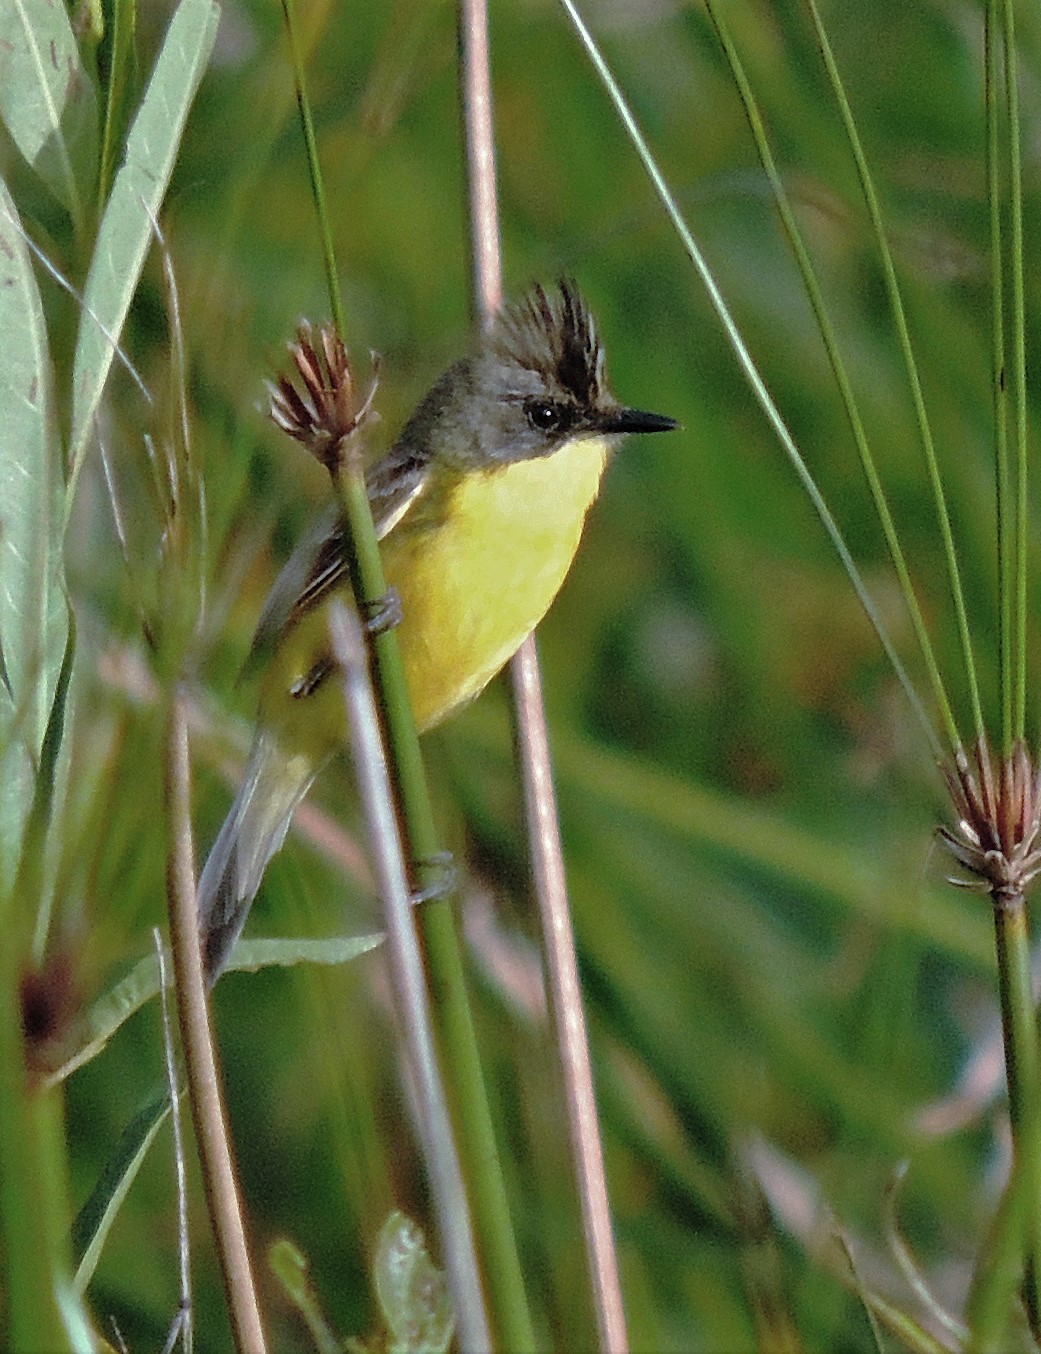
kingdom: Animalia
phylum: Chordata
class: Aves
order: Passeriformes
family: Tyrannidae
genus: Pseudocolopteryx
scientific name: Pseudocolopteryx sclateri
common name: Crested doradito
